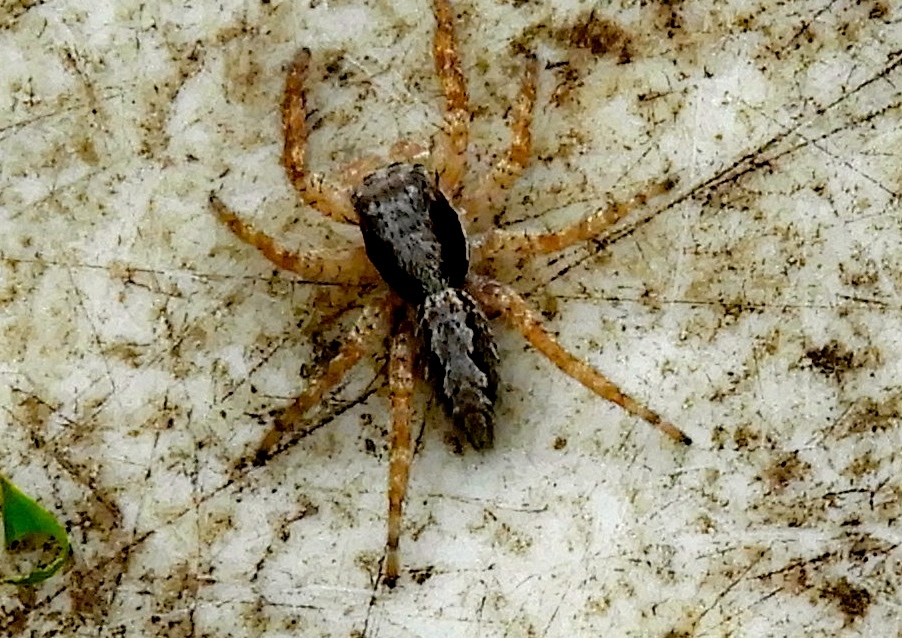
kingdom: Animalia
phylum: Arthropoda
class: Arachnida
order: Araneae
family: Salticidae
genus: Balmaceda
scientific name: Balmaceda
